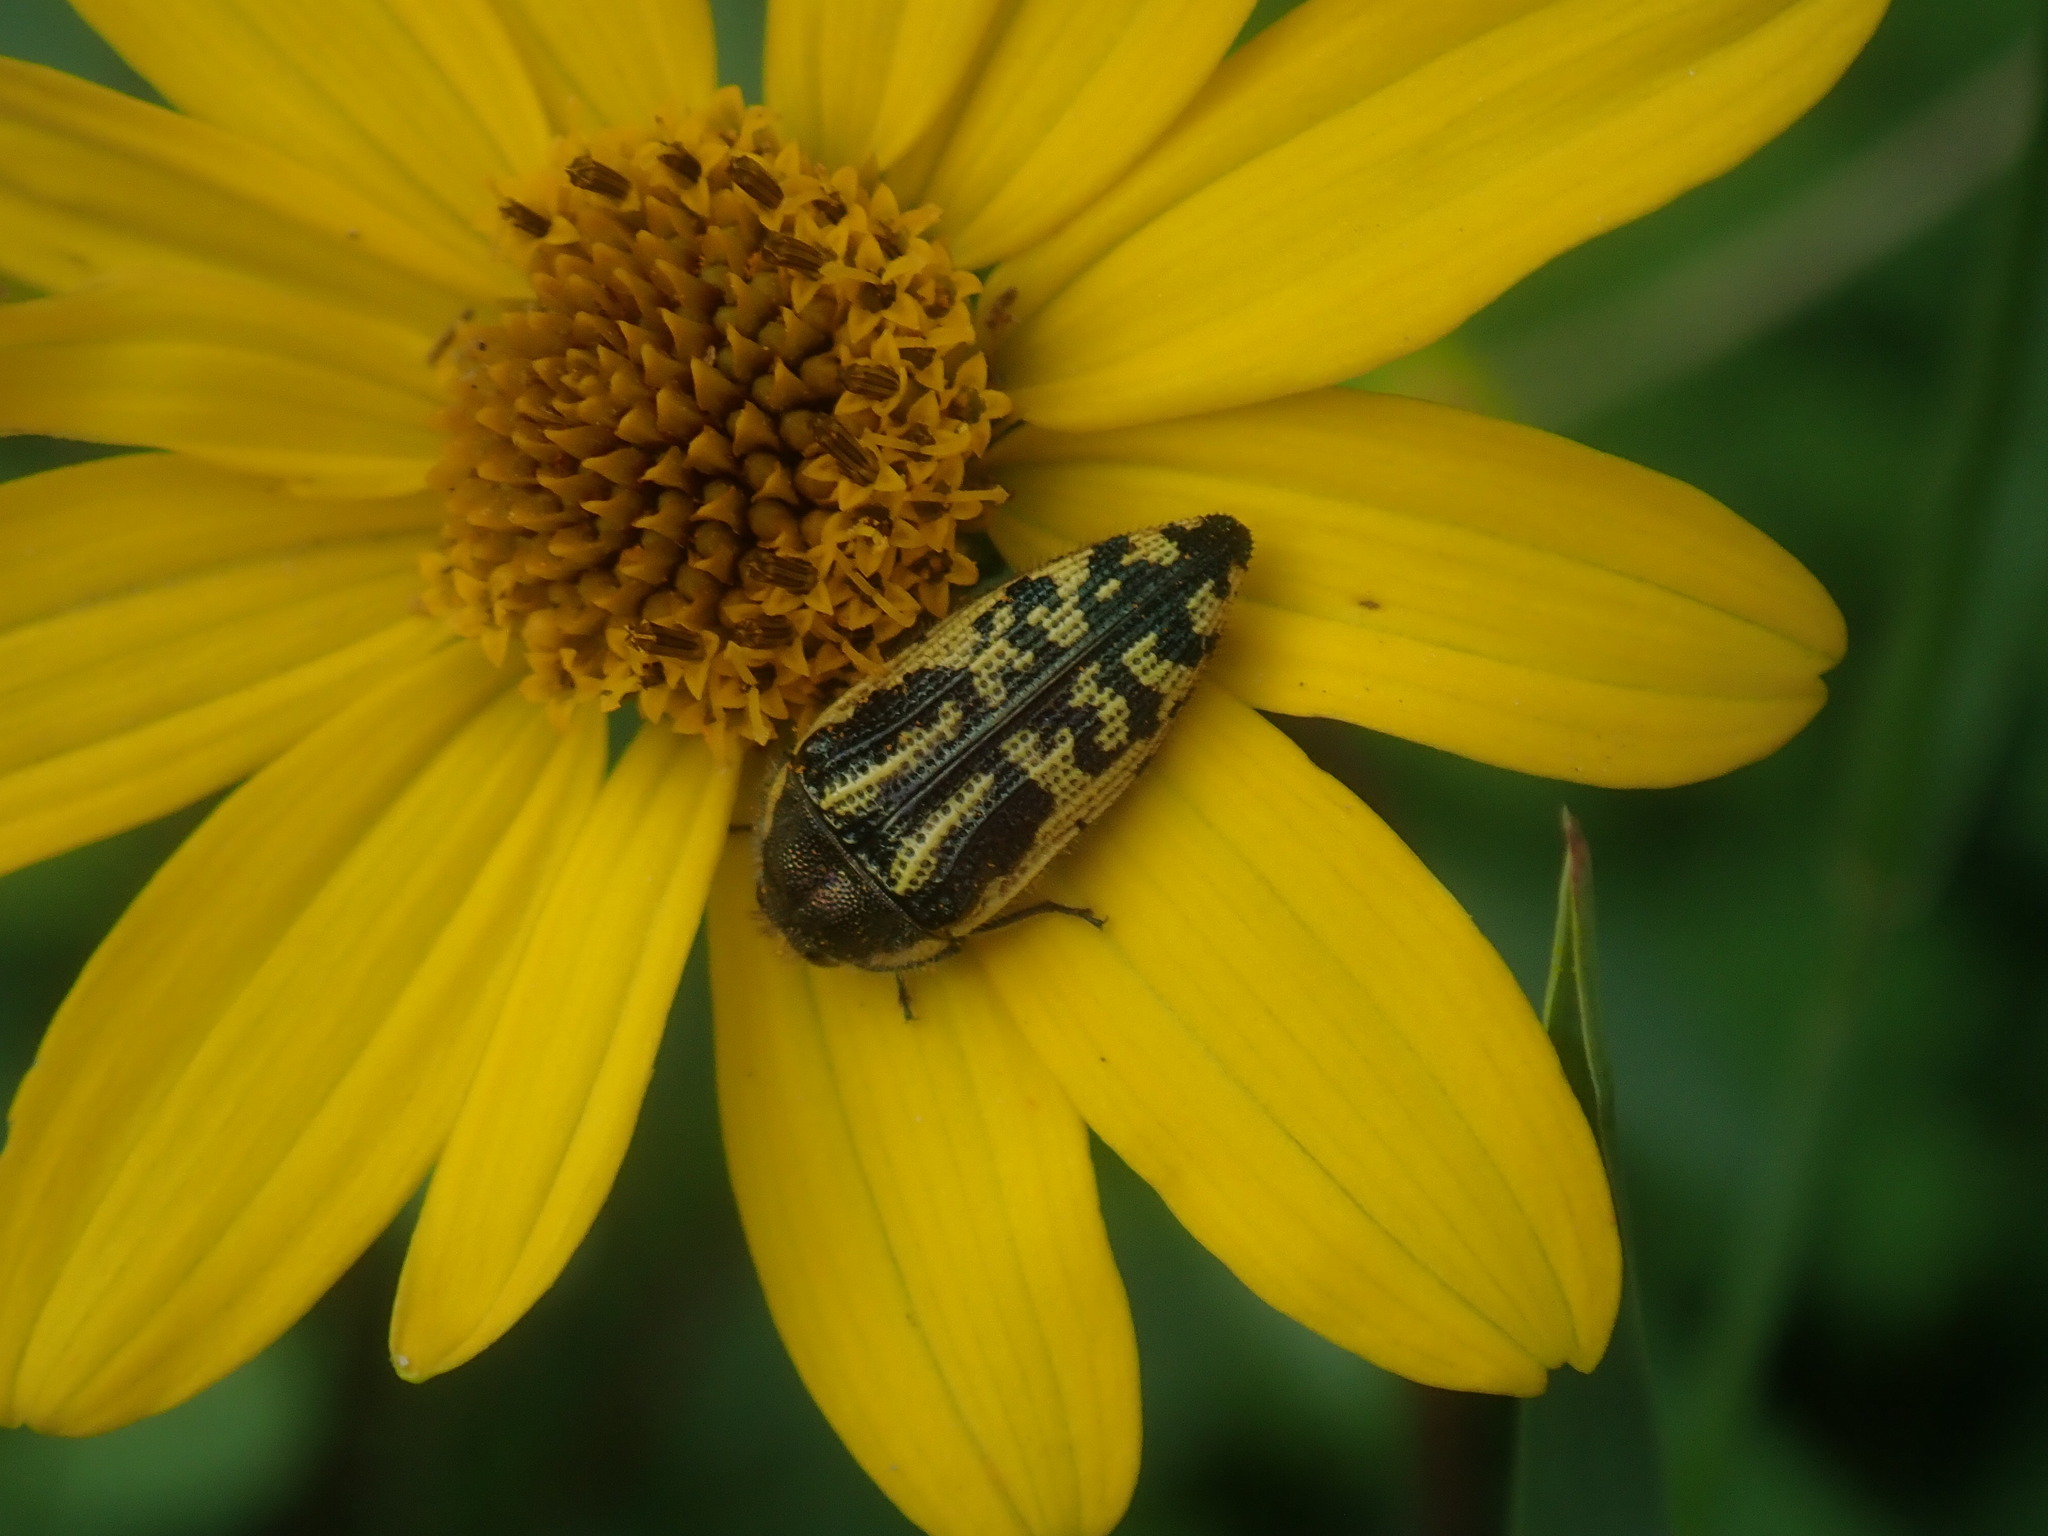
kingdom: Animalia
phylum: Arthropoda
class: Insecta
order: Coleoptera
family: Buprestidae
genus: Acmaeodera
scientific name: Acmaeodera amplicollis
